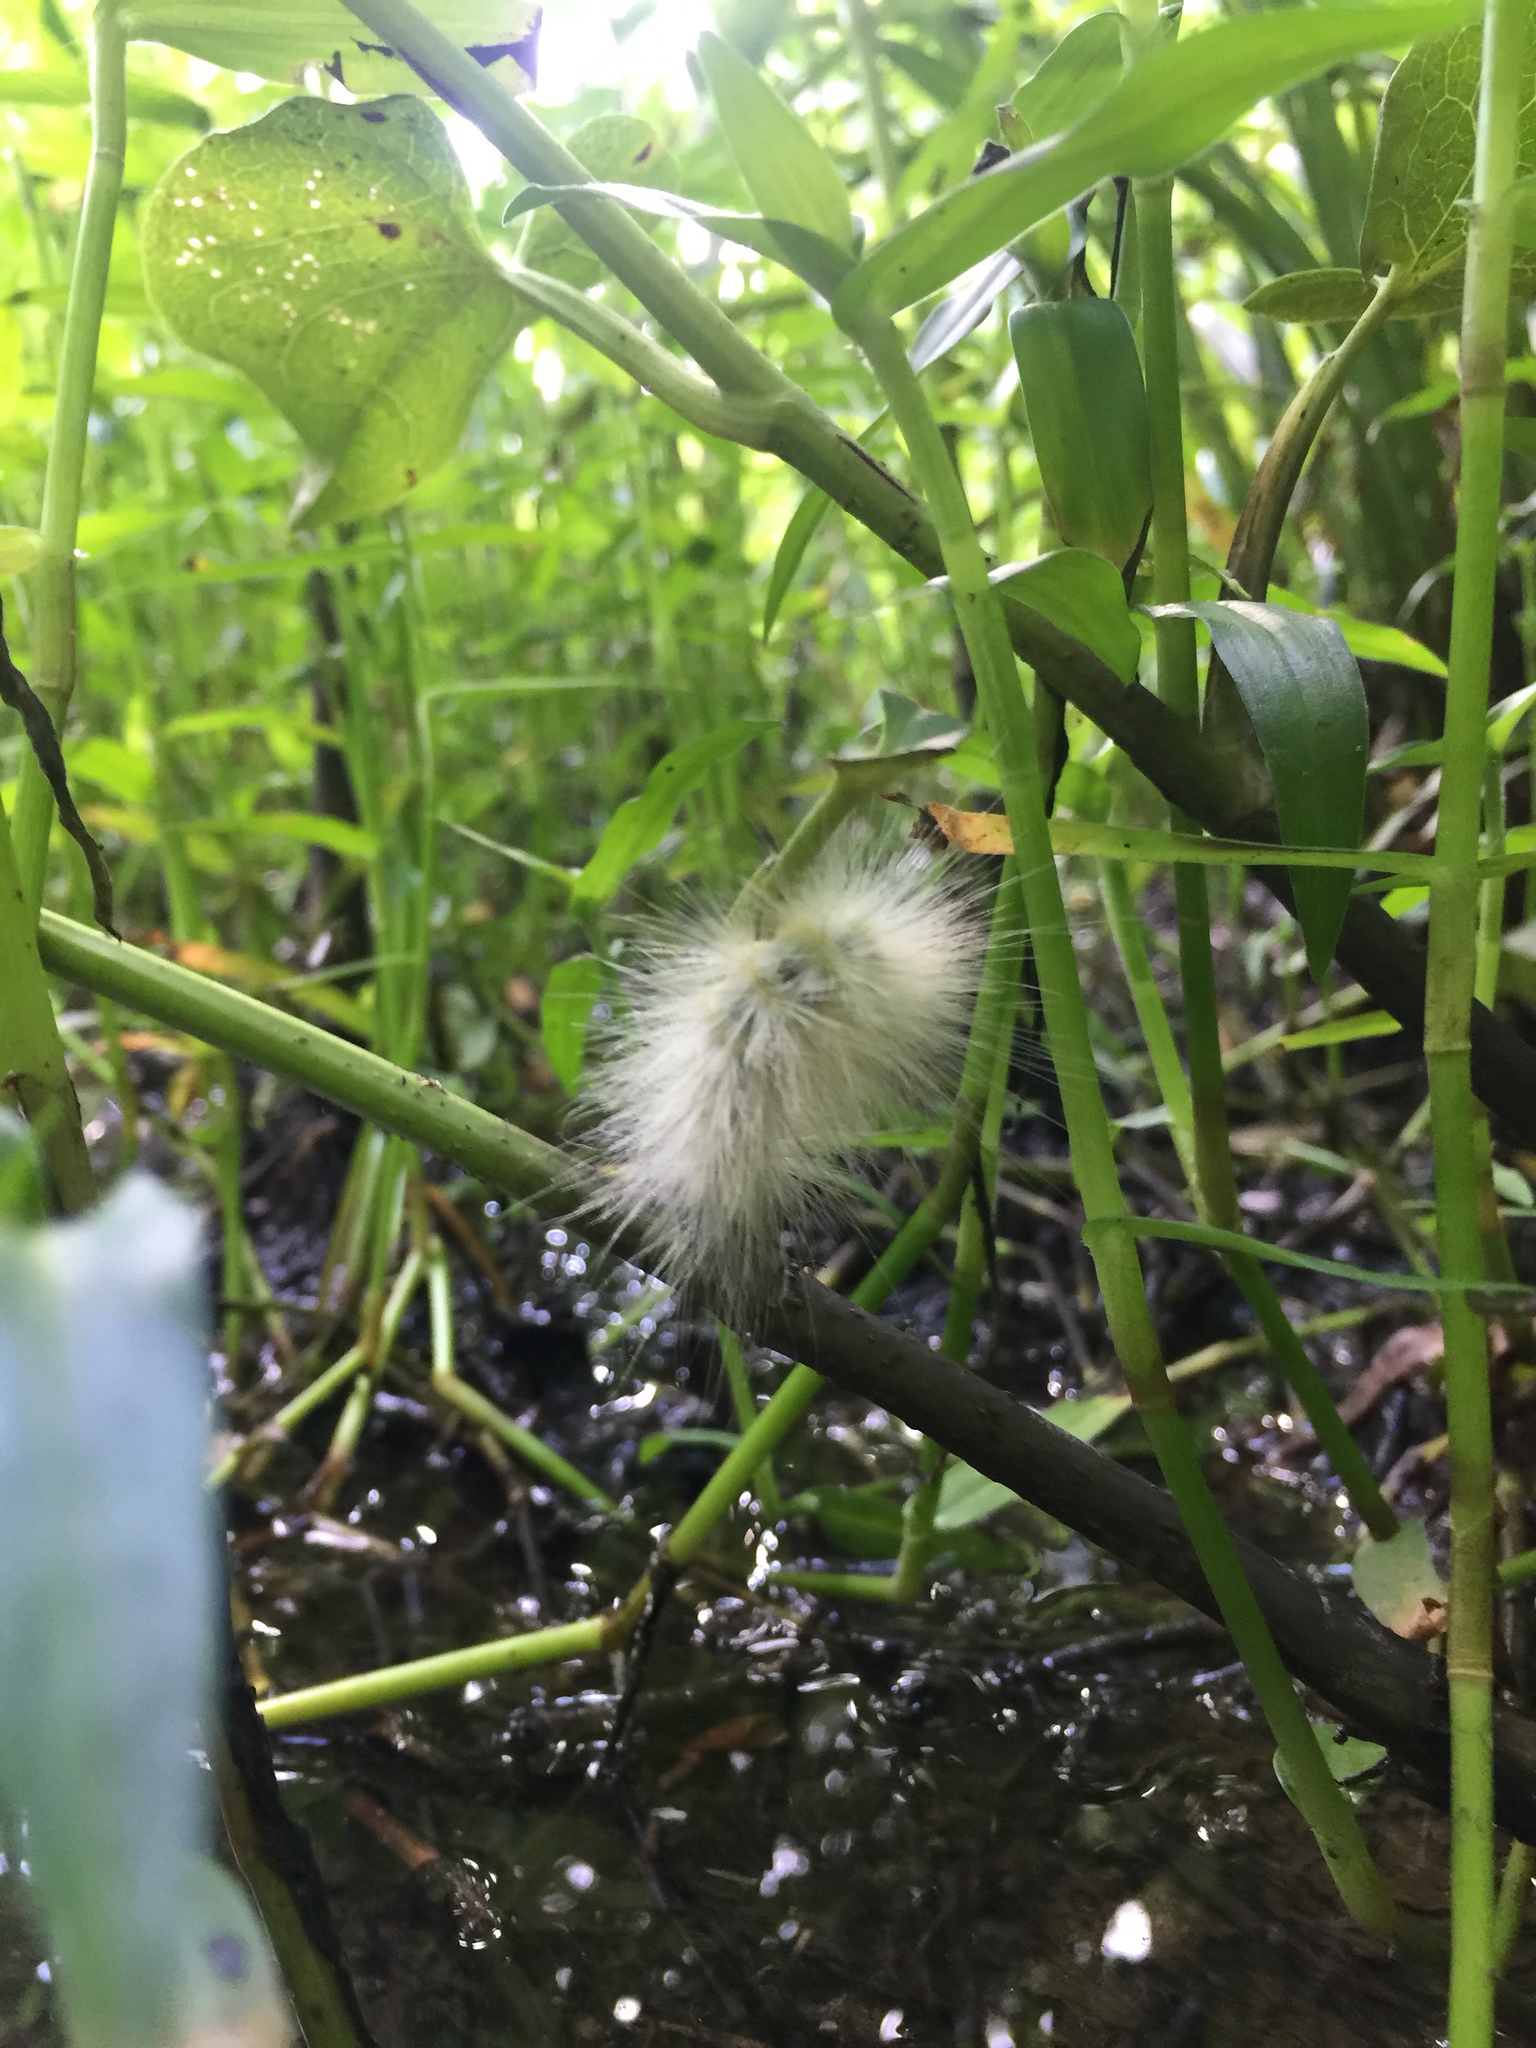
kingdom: Animalia
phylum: Arthropoda
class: Insecta
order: Lepidoptera
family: Erebidae
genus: Spilosoma
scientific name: Spilosoma virginica
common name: Virginia tiger moth
